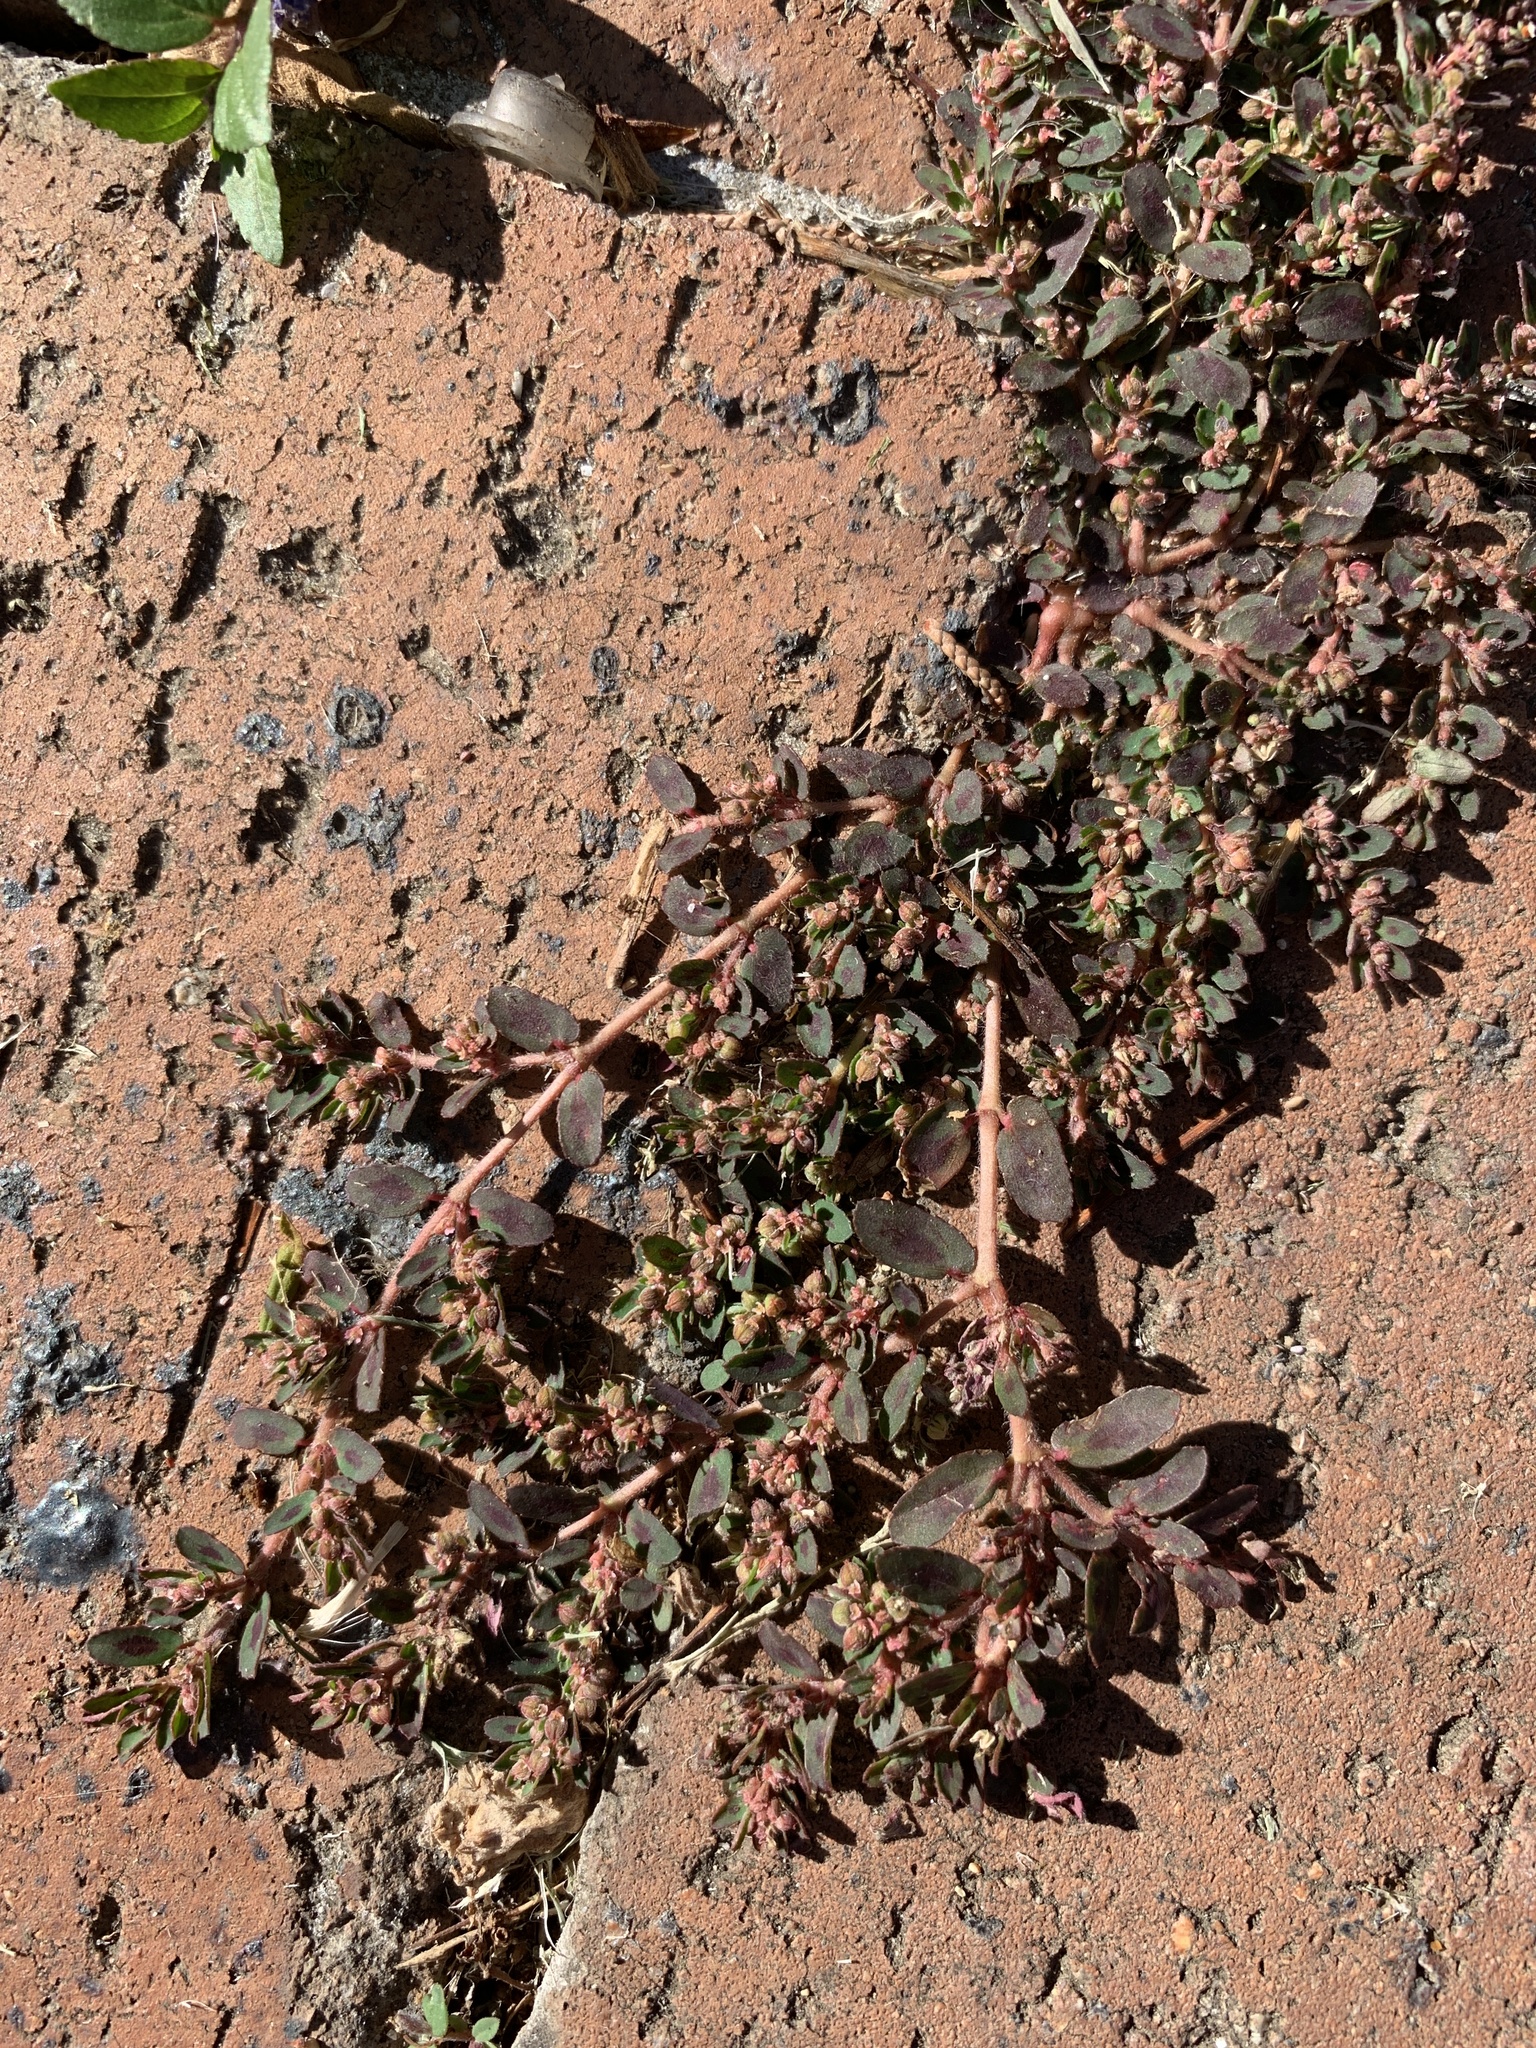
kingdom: Plantae
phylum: Tracheophyta
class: Magnoliopsida
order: Malpighiales
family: Euphorbiaceae
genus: Euphorbia
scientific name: Euphorbia maculata
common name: Spotted spurge
